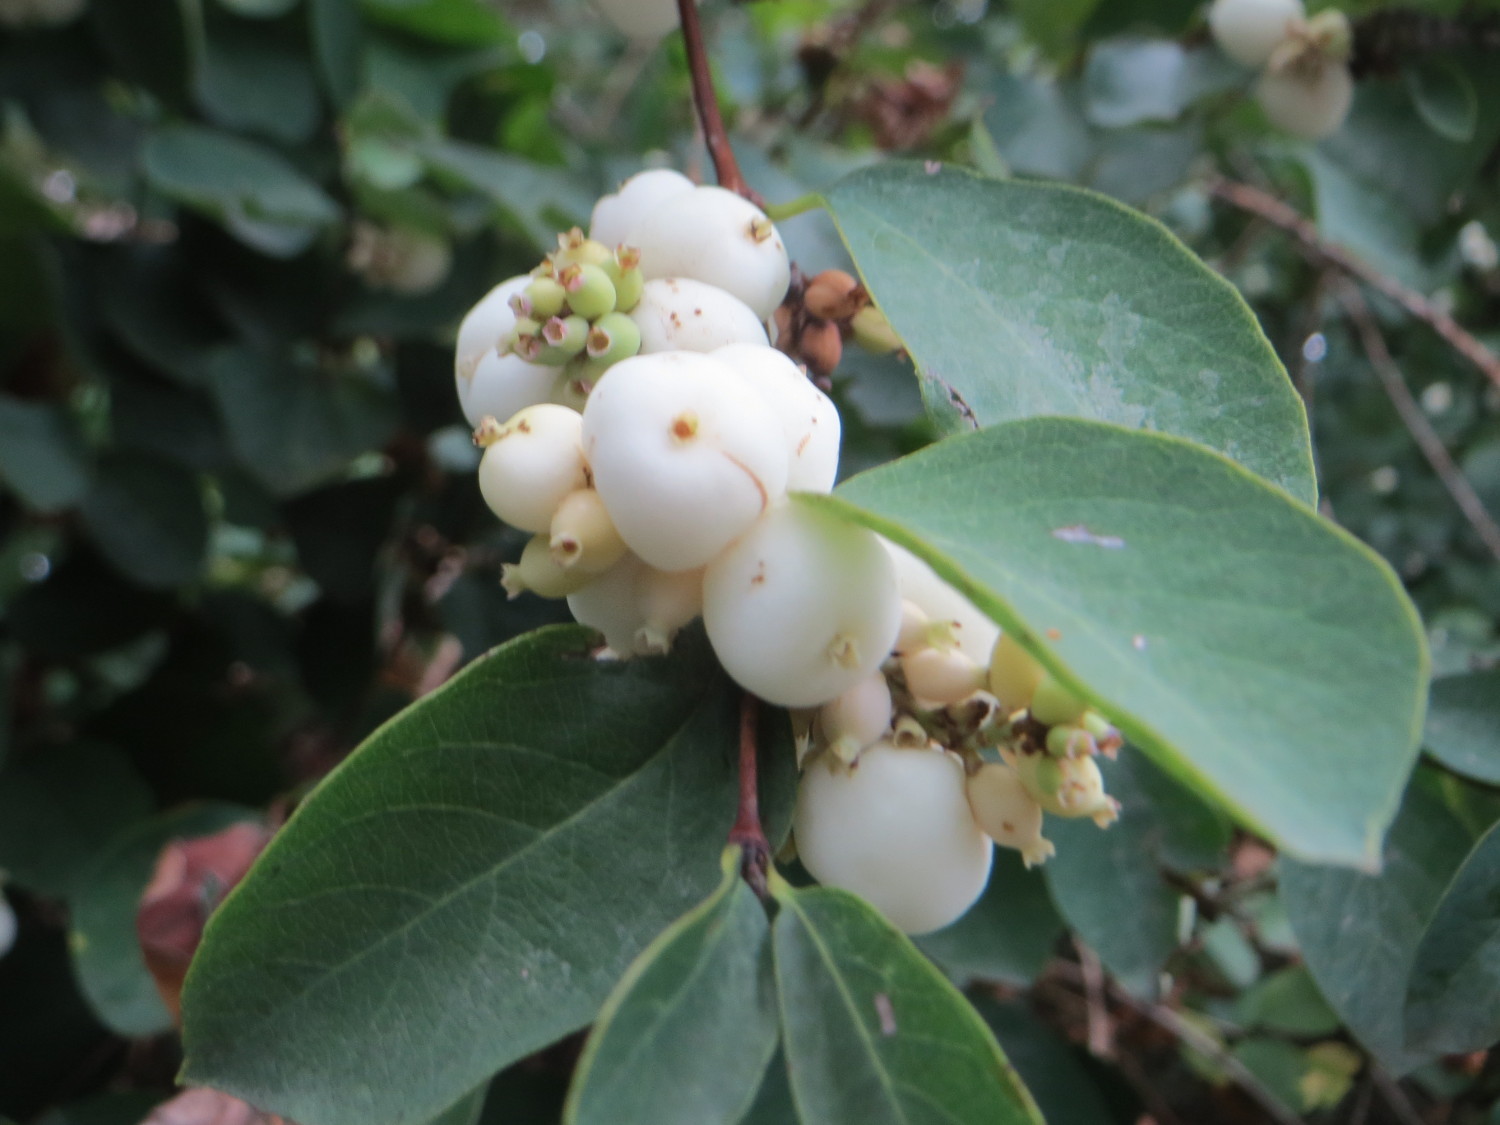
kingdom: Plantae
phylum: Tracheophyta
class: Magnoliopsida
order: Dipsacales
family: Caprifoliaceae
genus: Symphoricarpos
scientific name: Symphoricarpos albus
